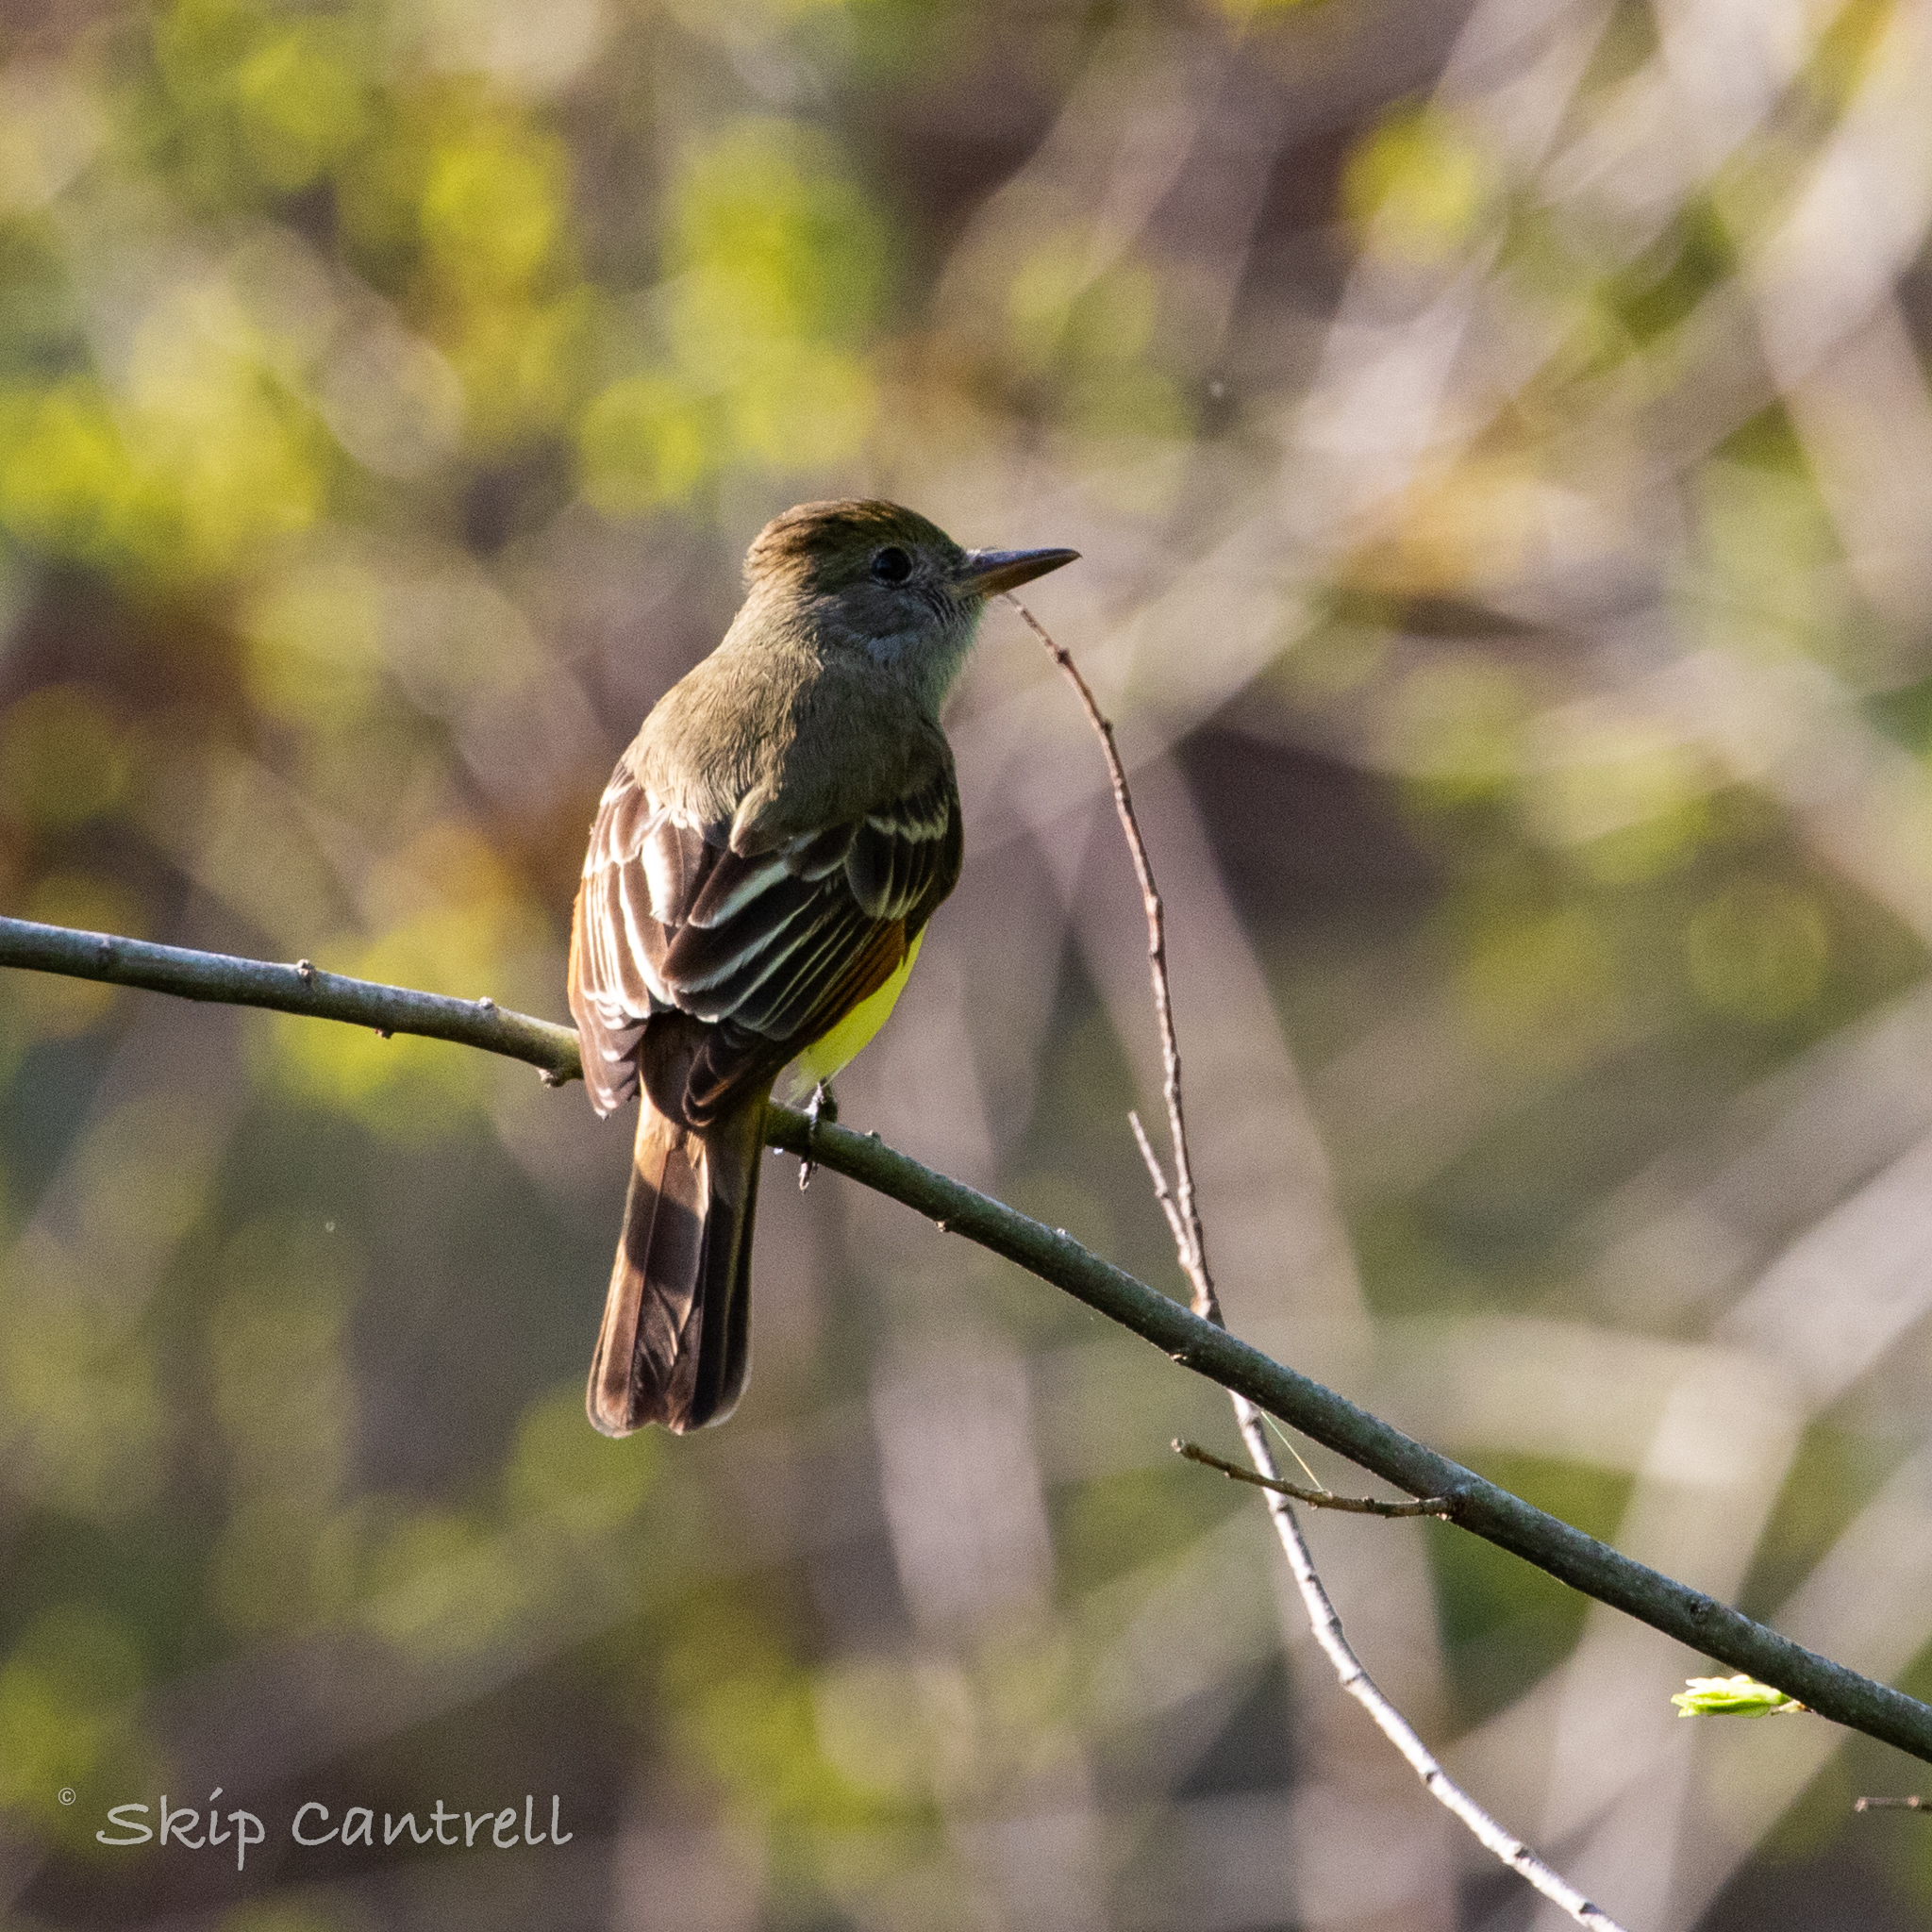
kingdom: Animalia
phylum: Chordata
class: Aves
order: Passeriformes
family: Tyrannidae
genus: Myiarchus
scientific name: Myiarchus crinitus
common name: Great crested flycatcher
